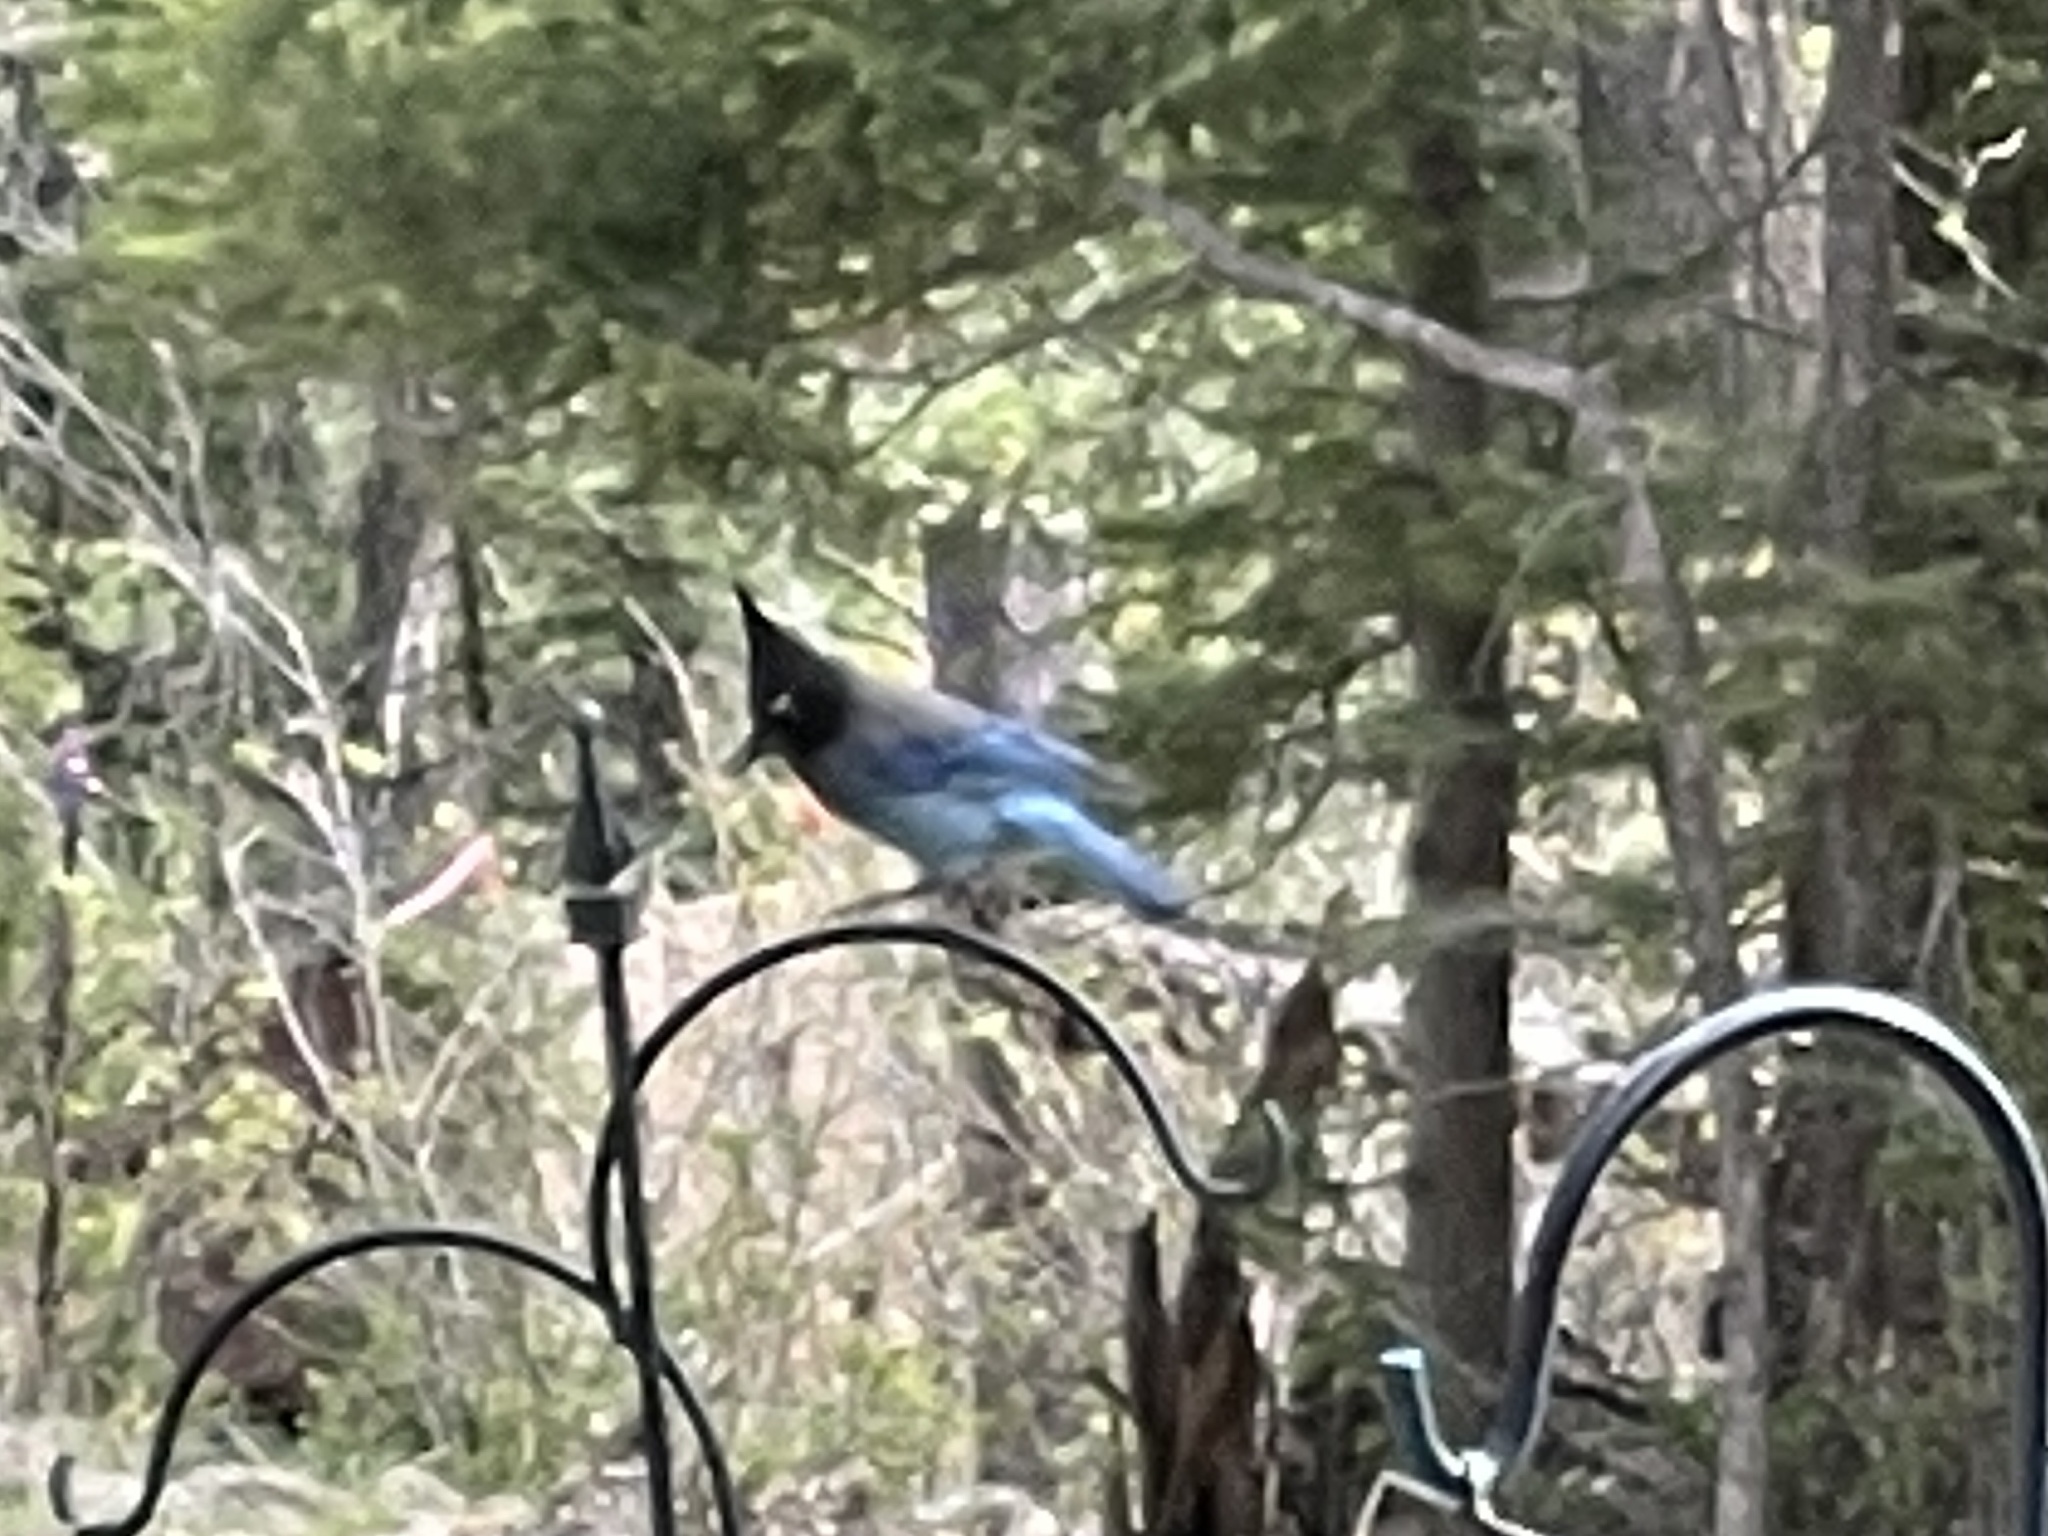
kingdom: Animalia
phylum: Chordata
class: Aves
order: Passeriformes
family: Corvidae
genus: Cyanocitta
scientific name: Cyanocitta stelleri
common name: Steller's jay
